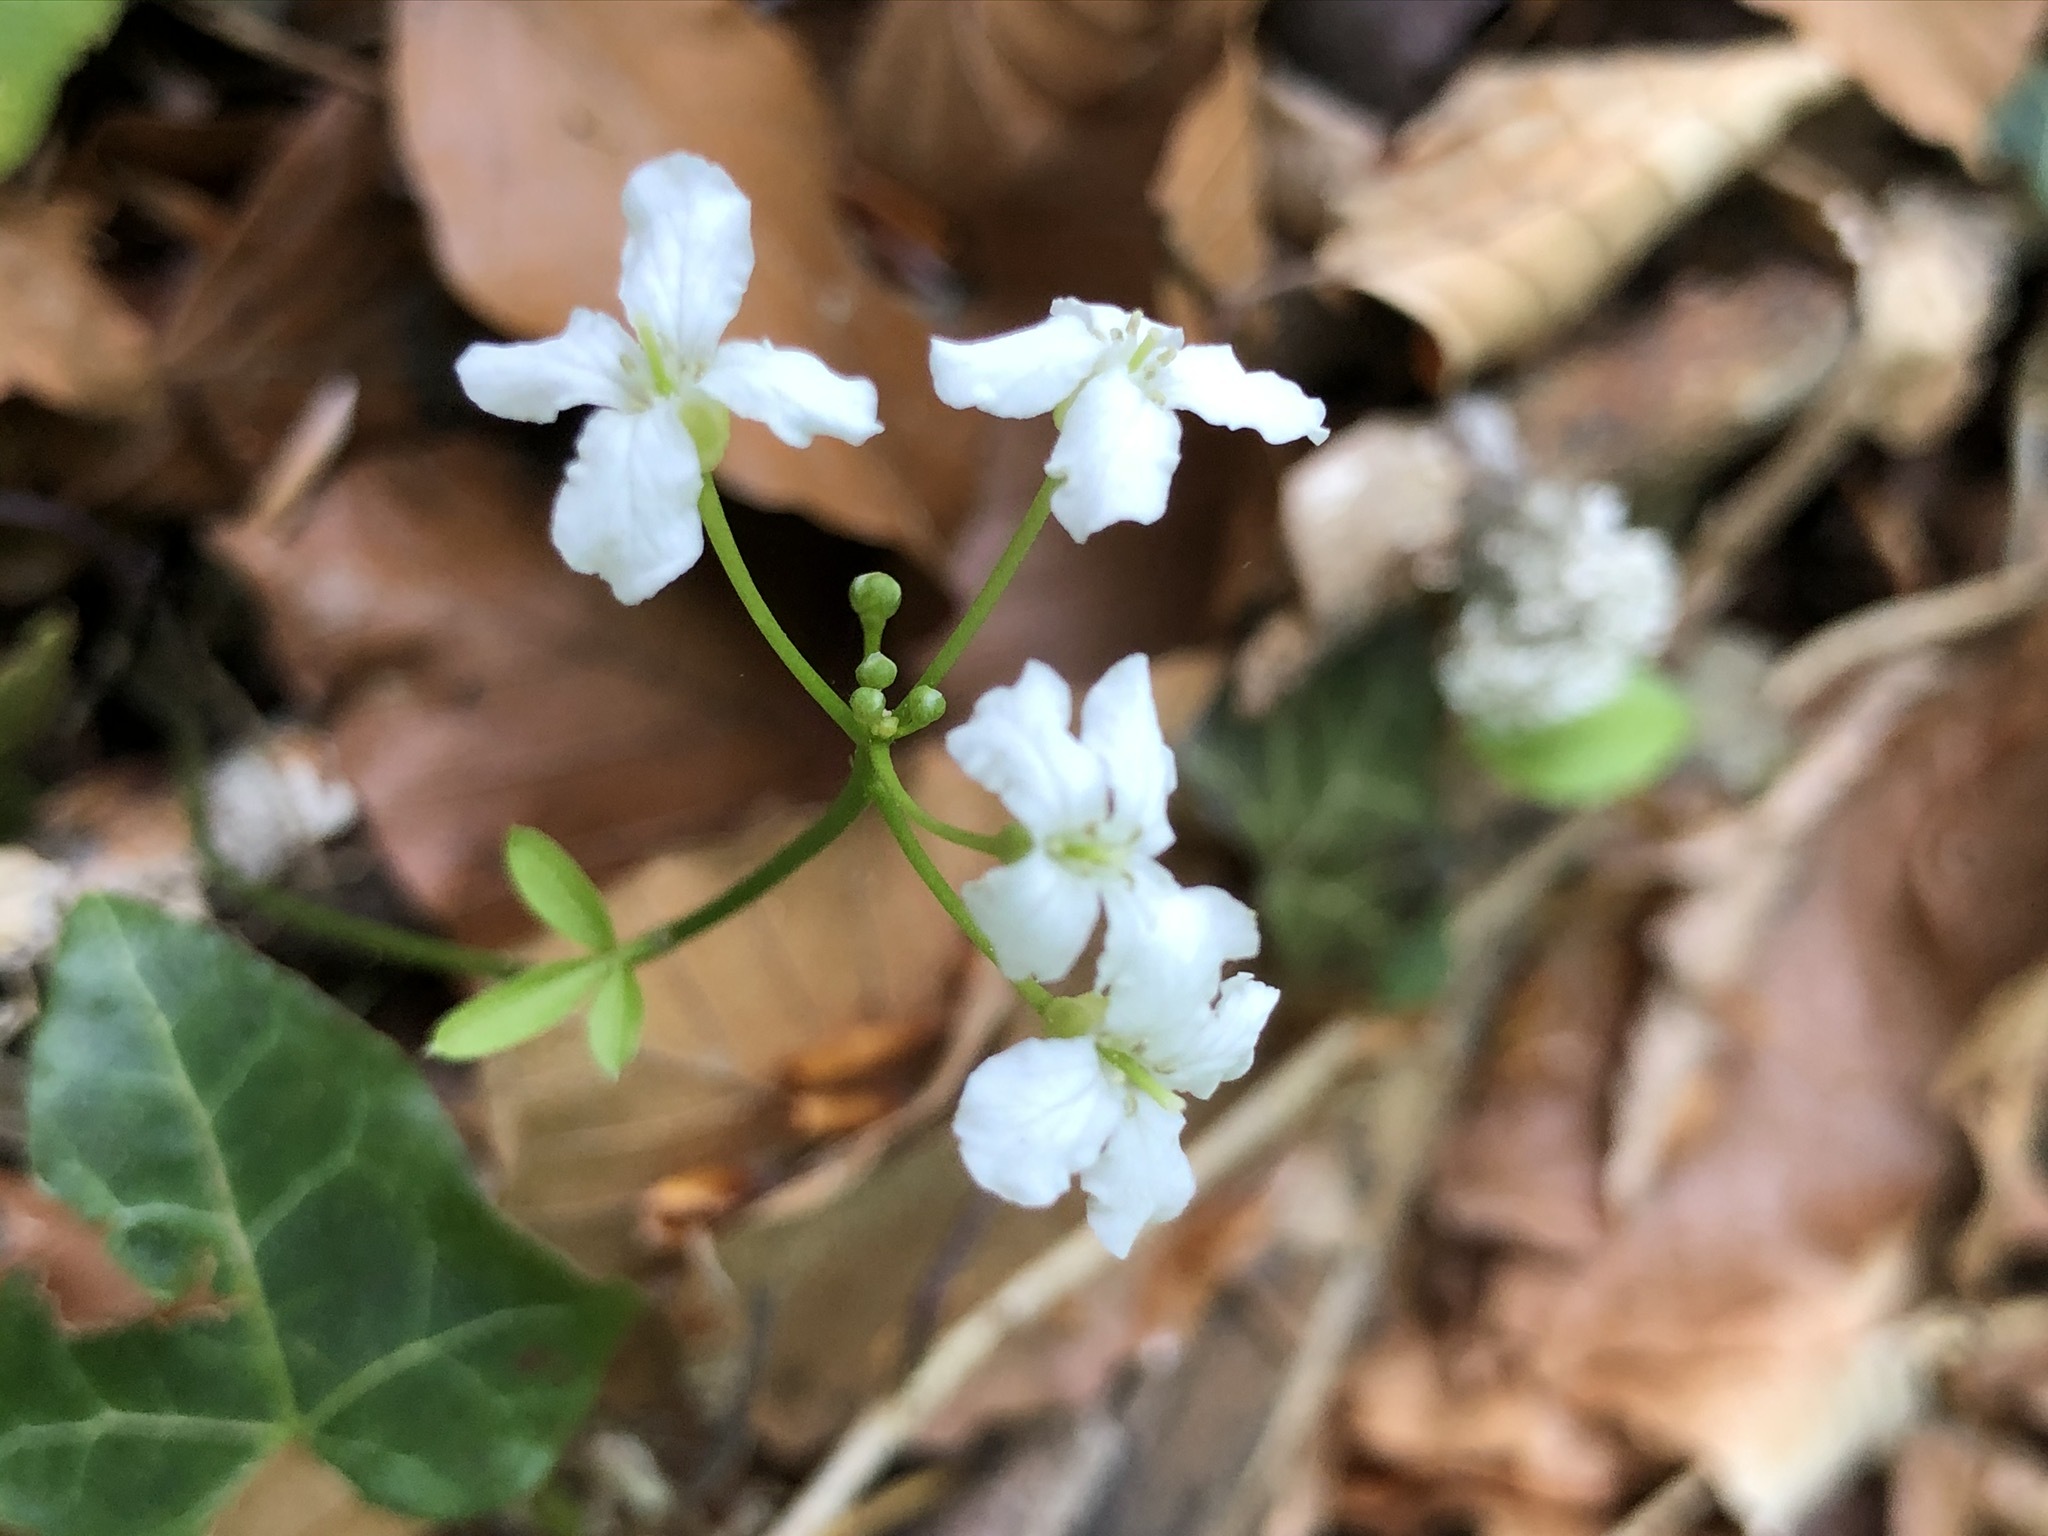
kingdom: Plantae
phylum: Tracheophyta
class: Magnoliopsida
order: Brassicales
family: Brassicaceae
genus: Cardamine
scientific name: Cardamine trifolia
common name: Trefoil cress
